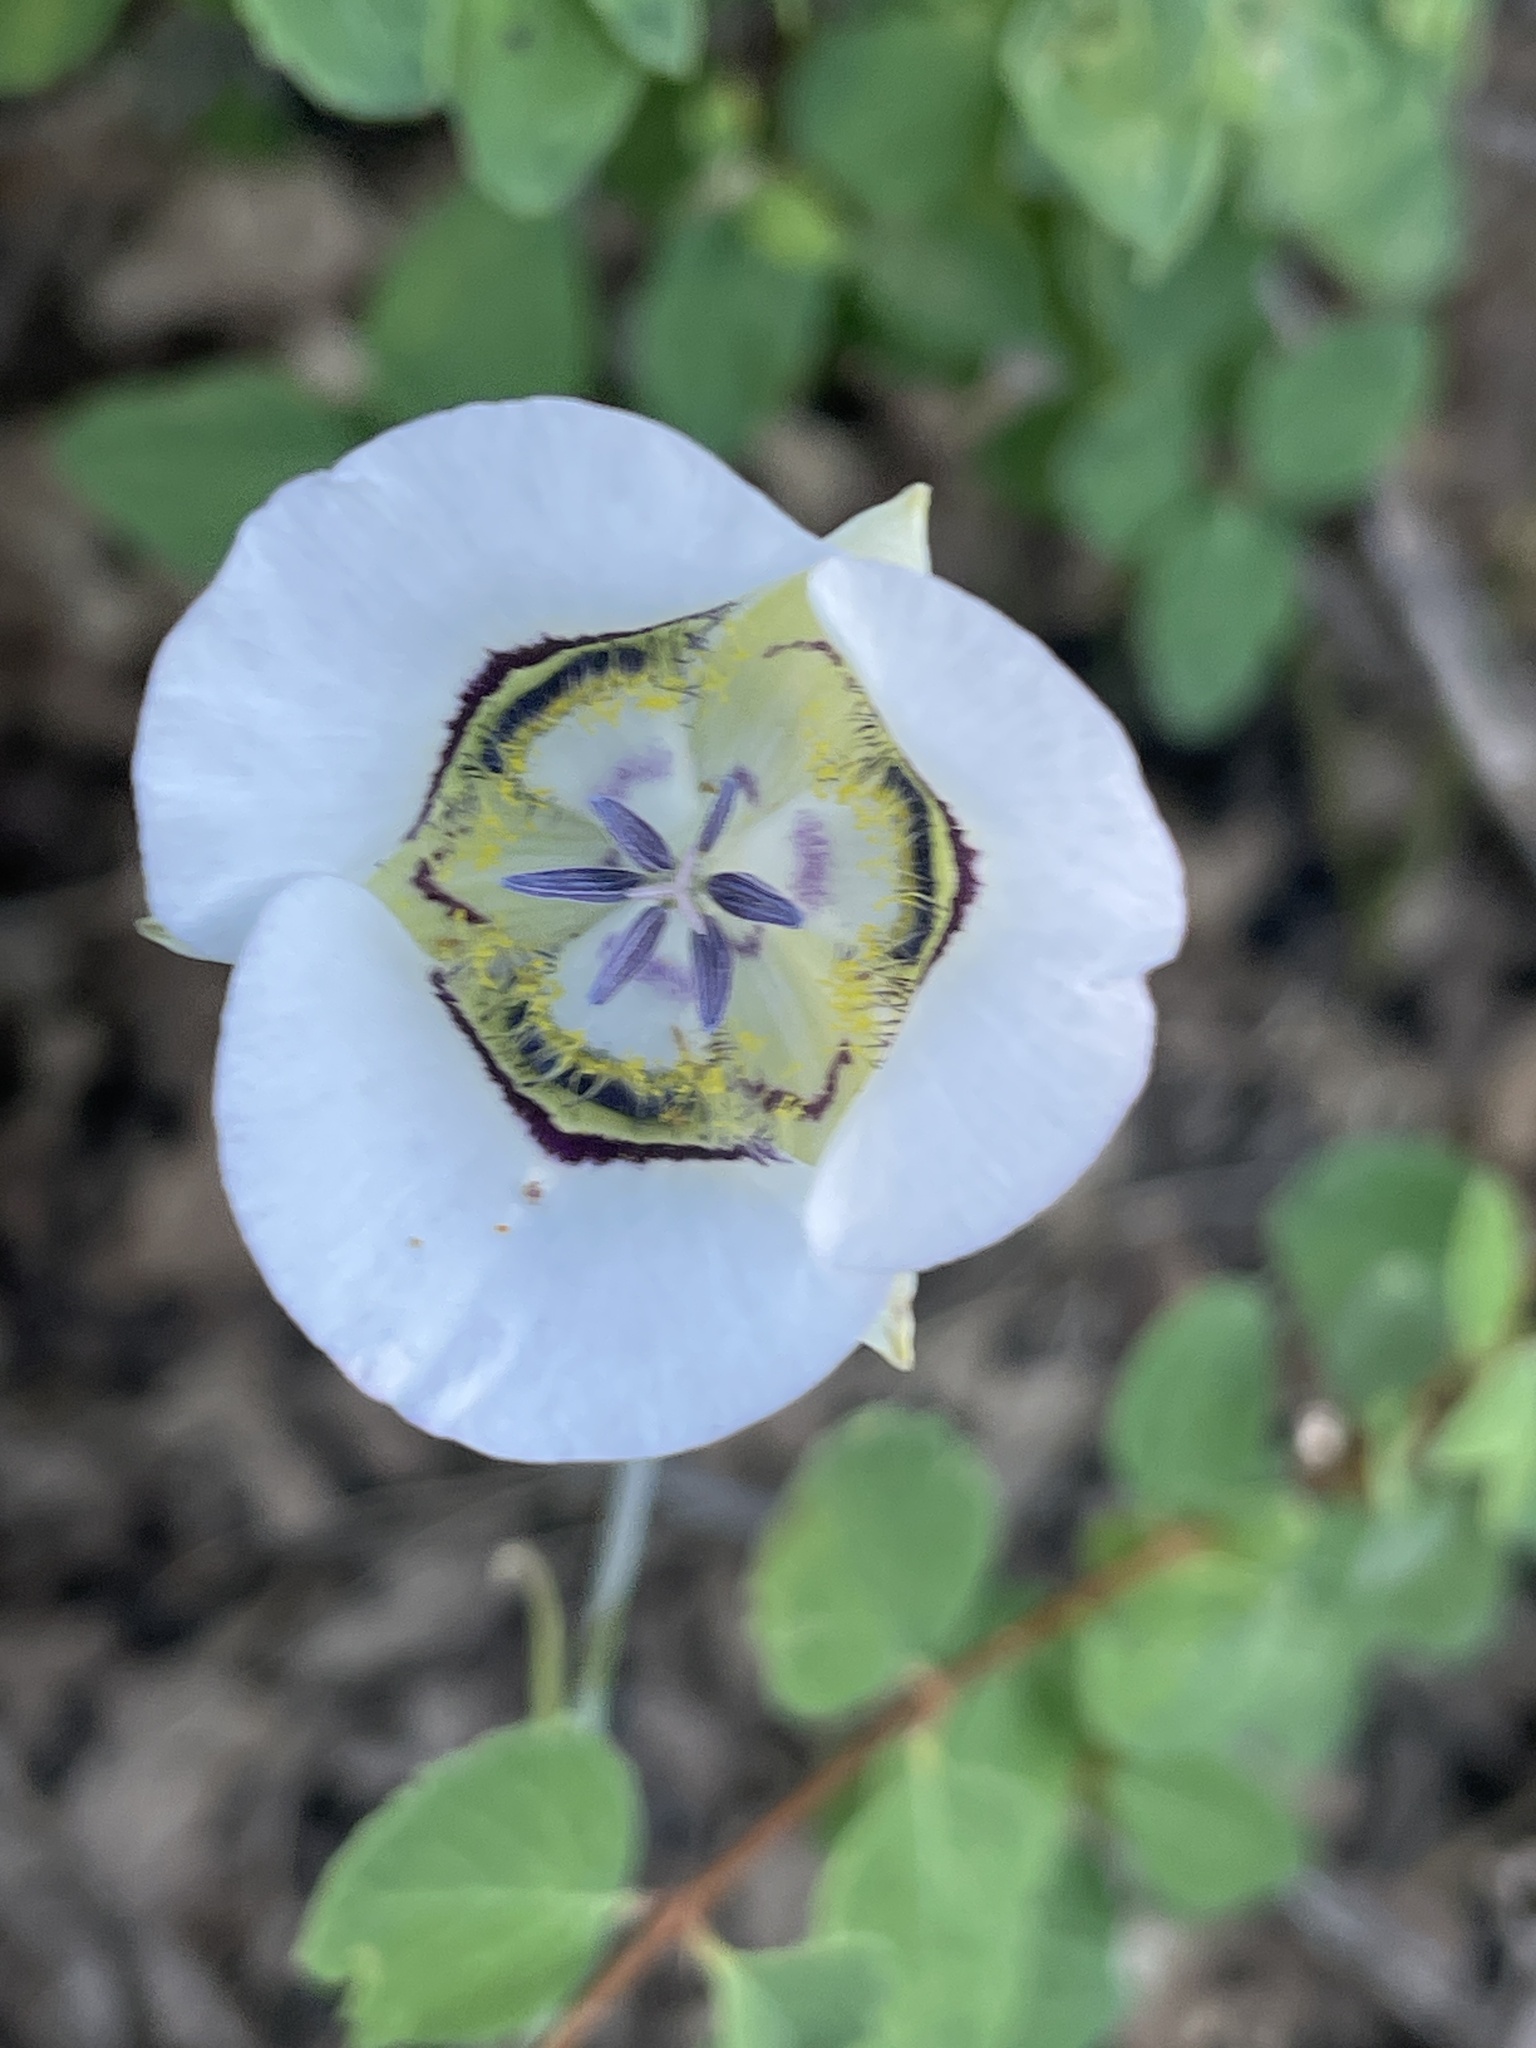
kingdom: Plantae
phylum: Tracheophyta
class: Liliopsida
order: Liliales
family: Liliaceae
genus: Calochortus
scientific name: Calochortus gunnisonii
